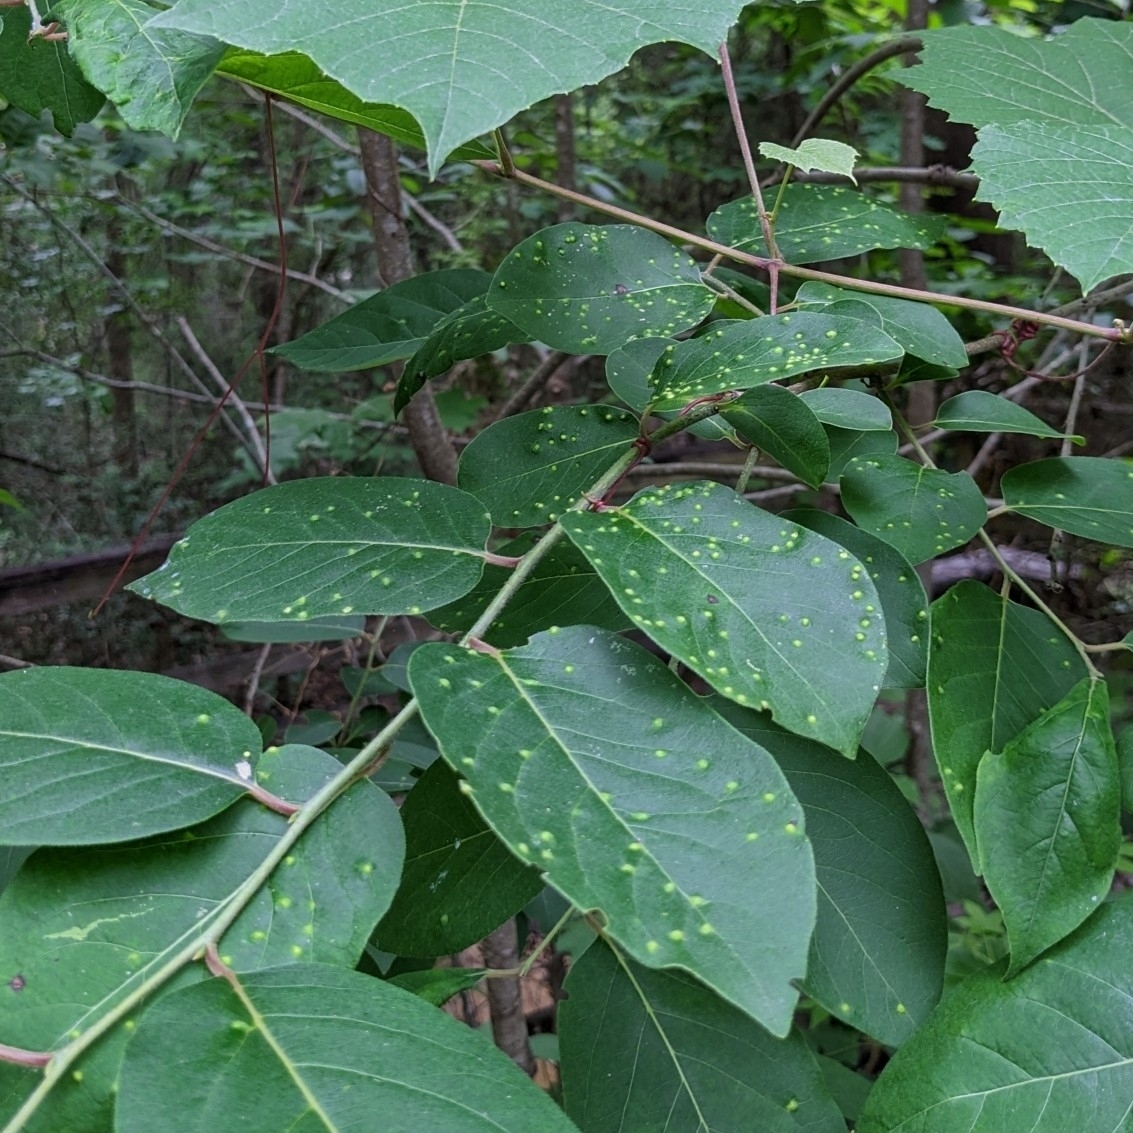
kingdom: Animalia
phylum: Arthropoda
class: Arachnida
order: Trombidiformes
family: Eriophyidae
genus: Aceria
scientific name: Aceria
